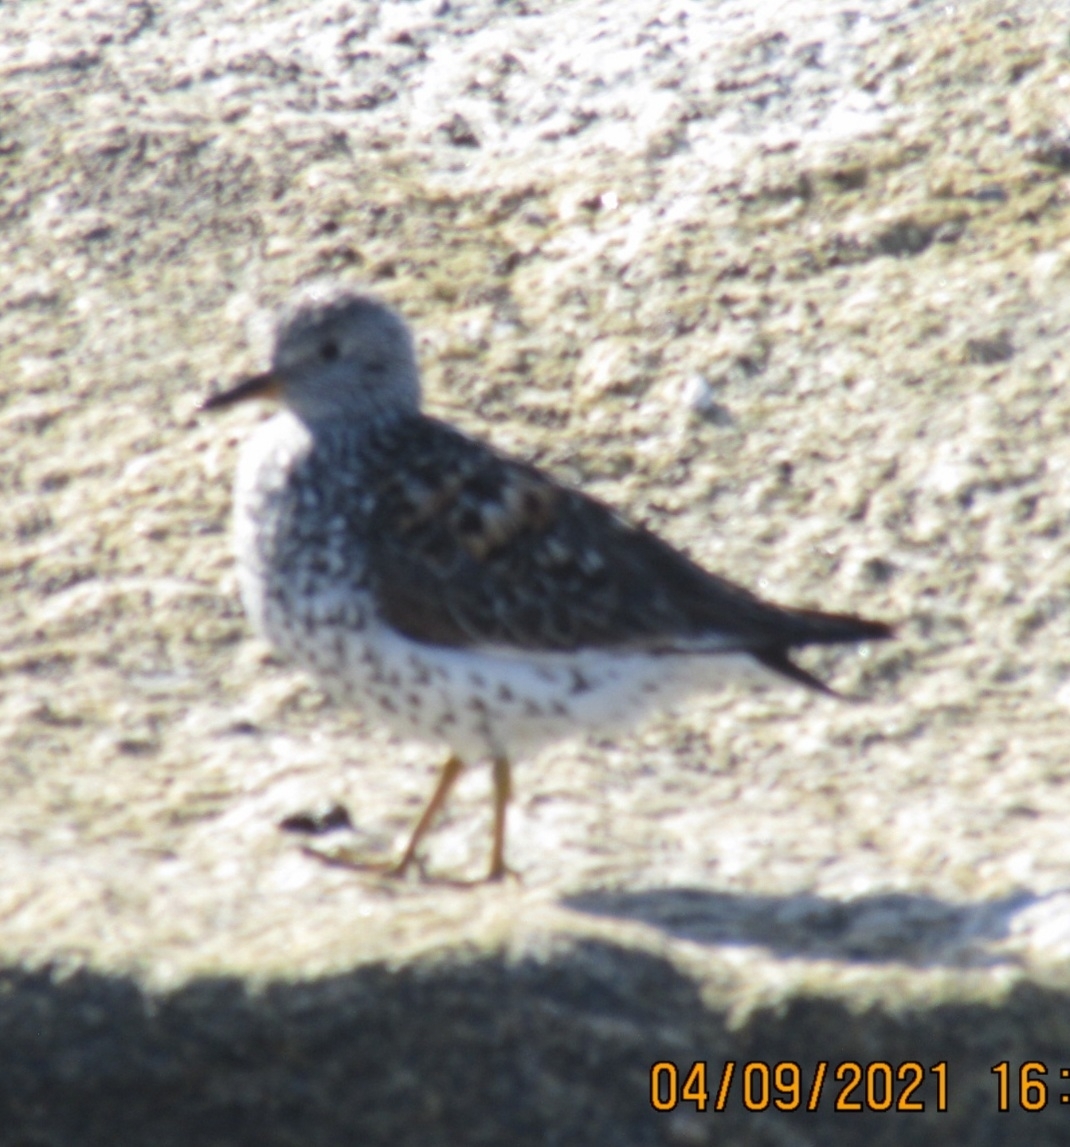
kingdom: Animalia
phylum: Chordata
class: Aves
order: Charadriiformes
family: Scolopacidae
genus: Calidris
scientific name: Calidris virgata
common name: Surfbird
